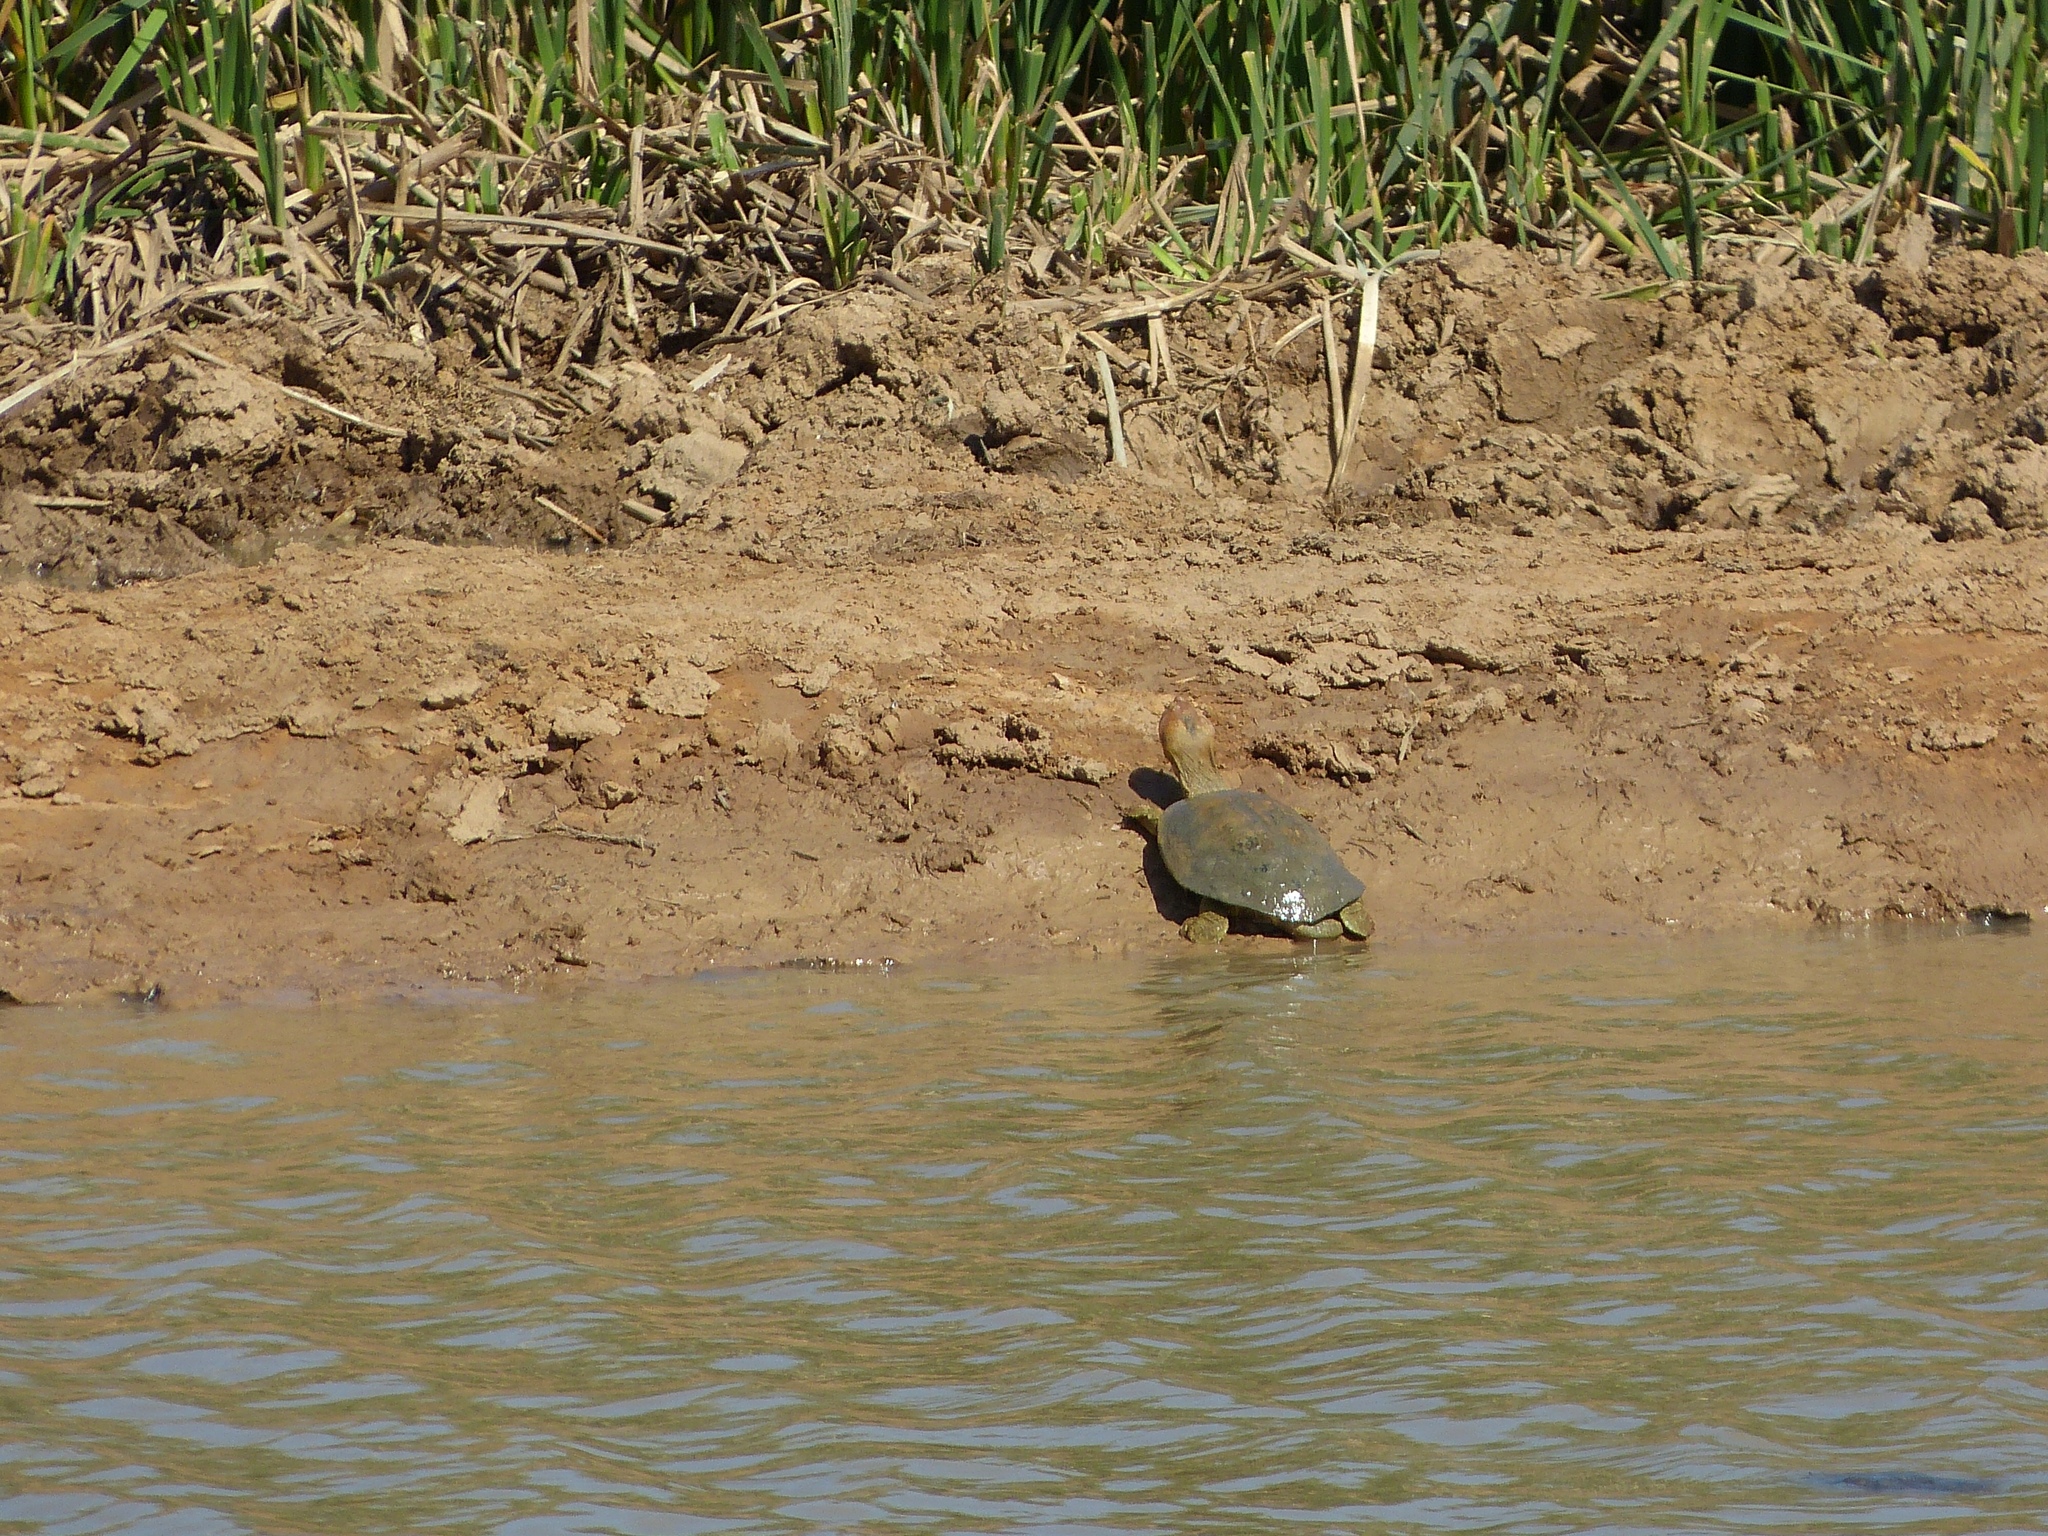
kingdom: Animalia
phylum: Chordata
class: Testudines
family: Pelomedusidae
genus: Pelomedusa
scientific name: Pelomedusa galeata
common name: South african helmeted terrapin
